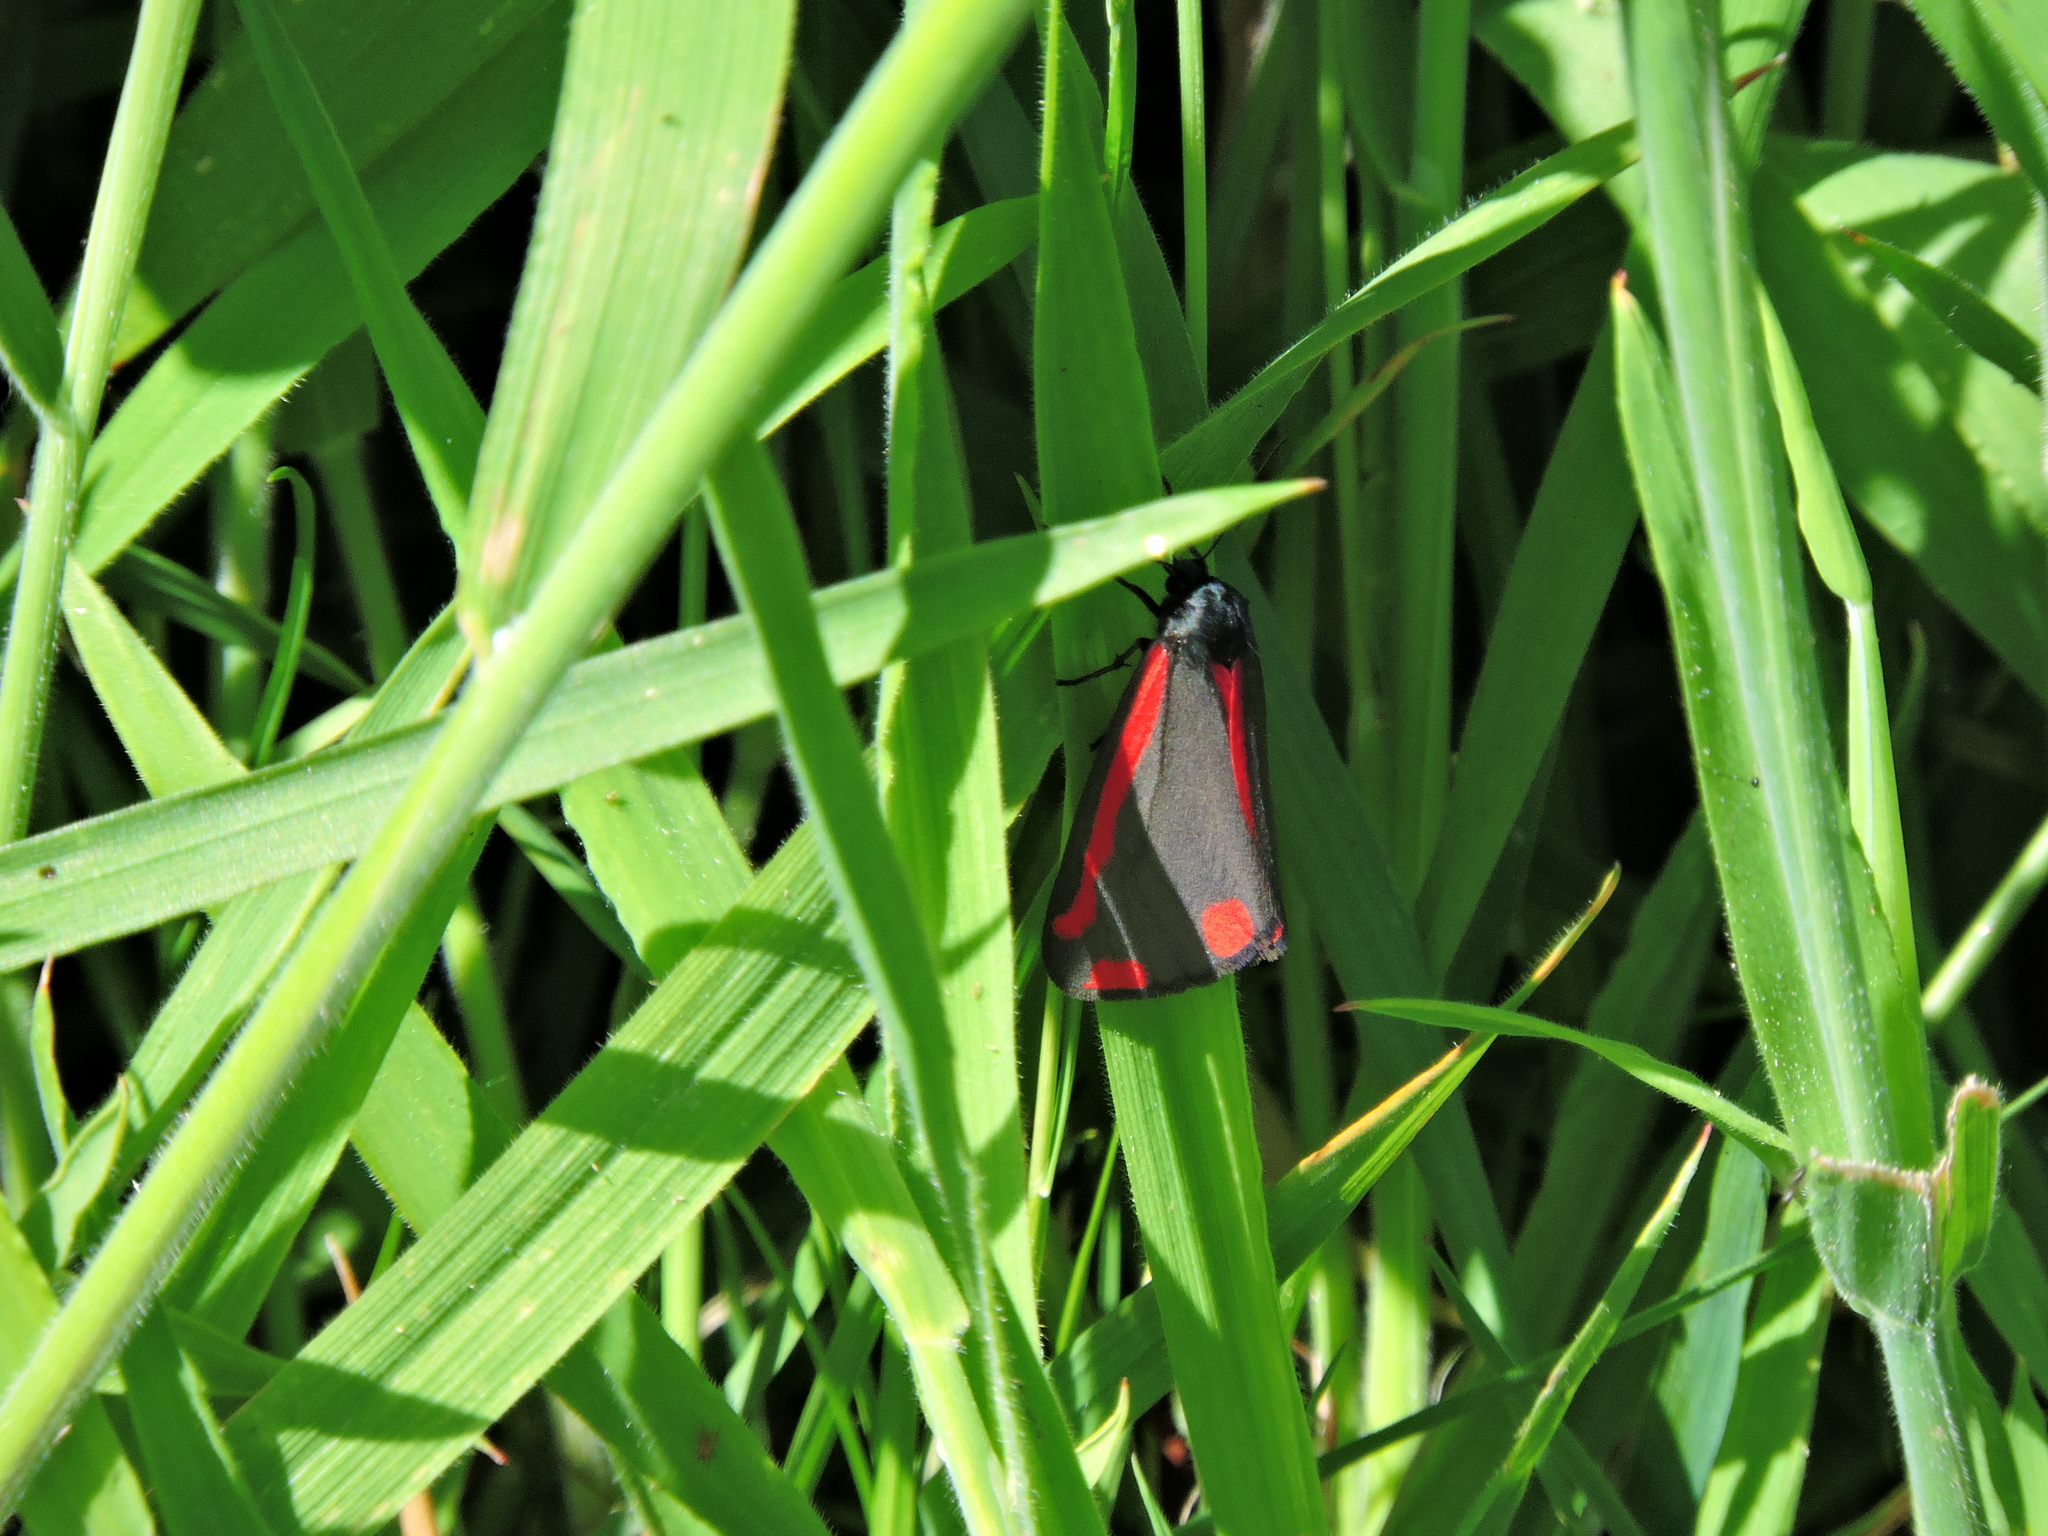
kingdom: Animalia
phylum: Arthropoda
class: Insecta
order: Lepidoptera
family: Erebidae
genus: Tyria
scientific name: Tyria jacobaeae
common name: Cinnabar
